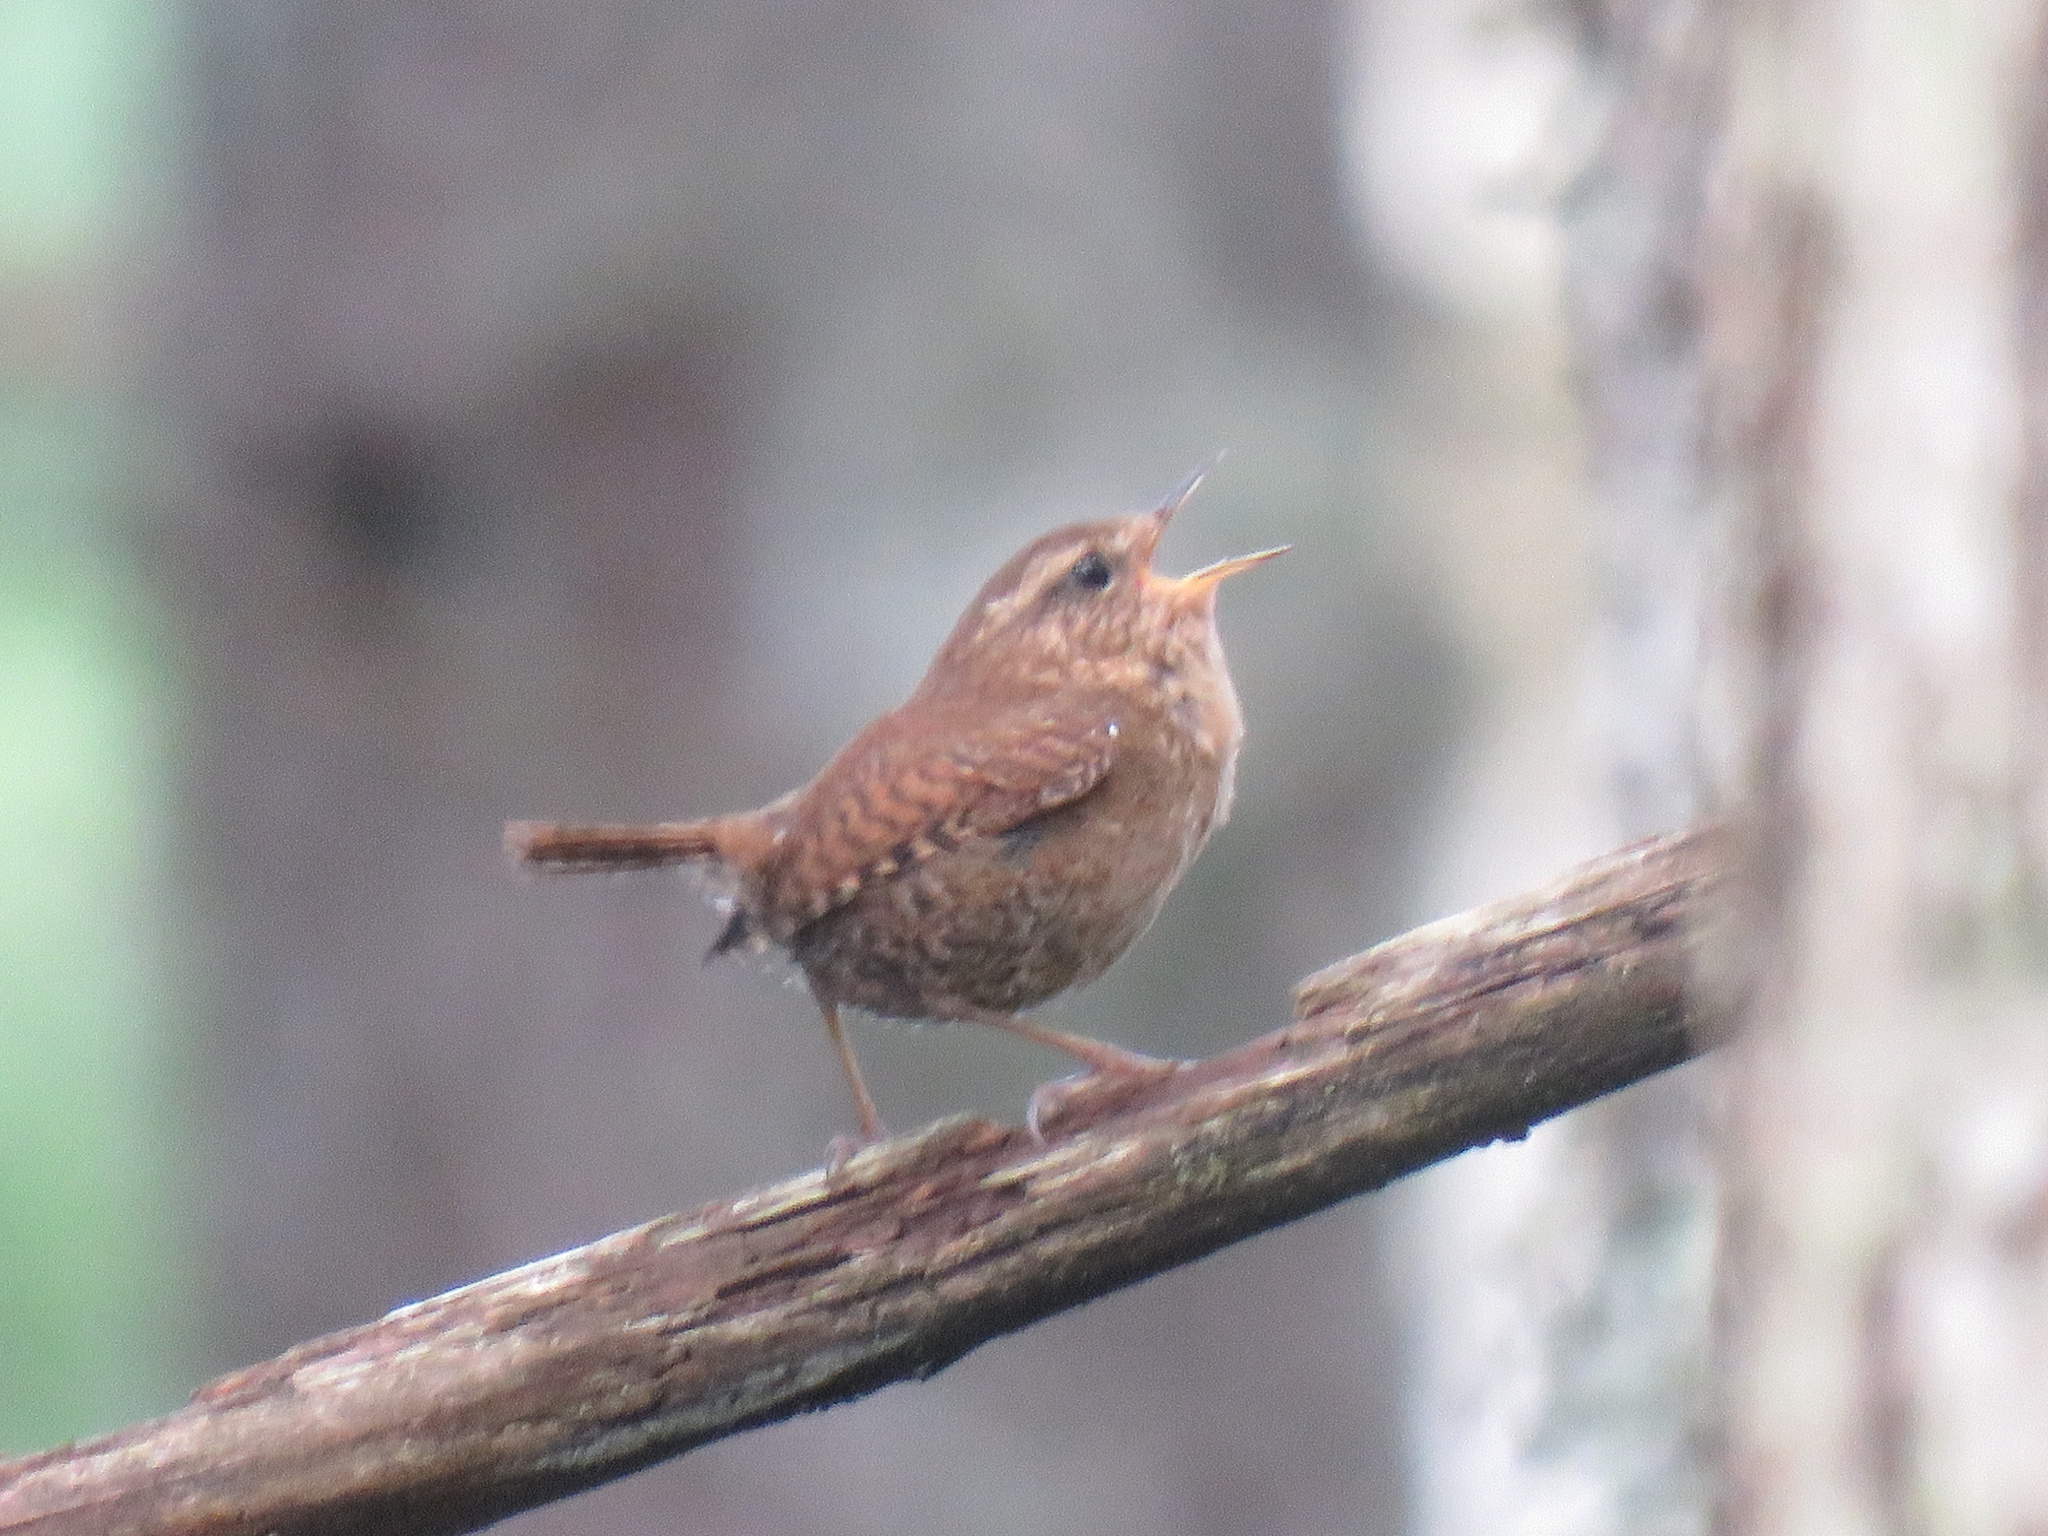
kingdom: Animalia
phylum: Chordata
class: Aves
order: Passeriformes
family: Troglodytidae
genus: Troglodytes
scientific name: Troglodytes pacificus
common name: Pacific wren
